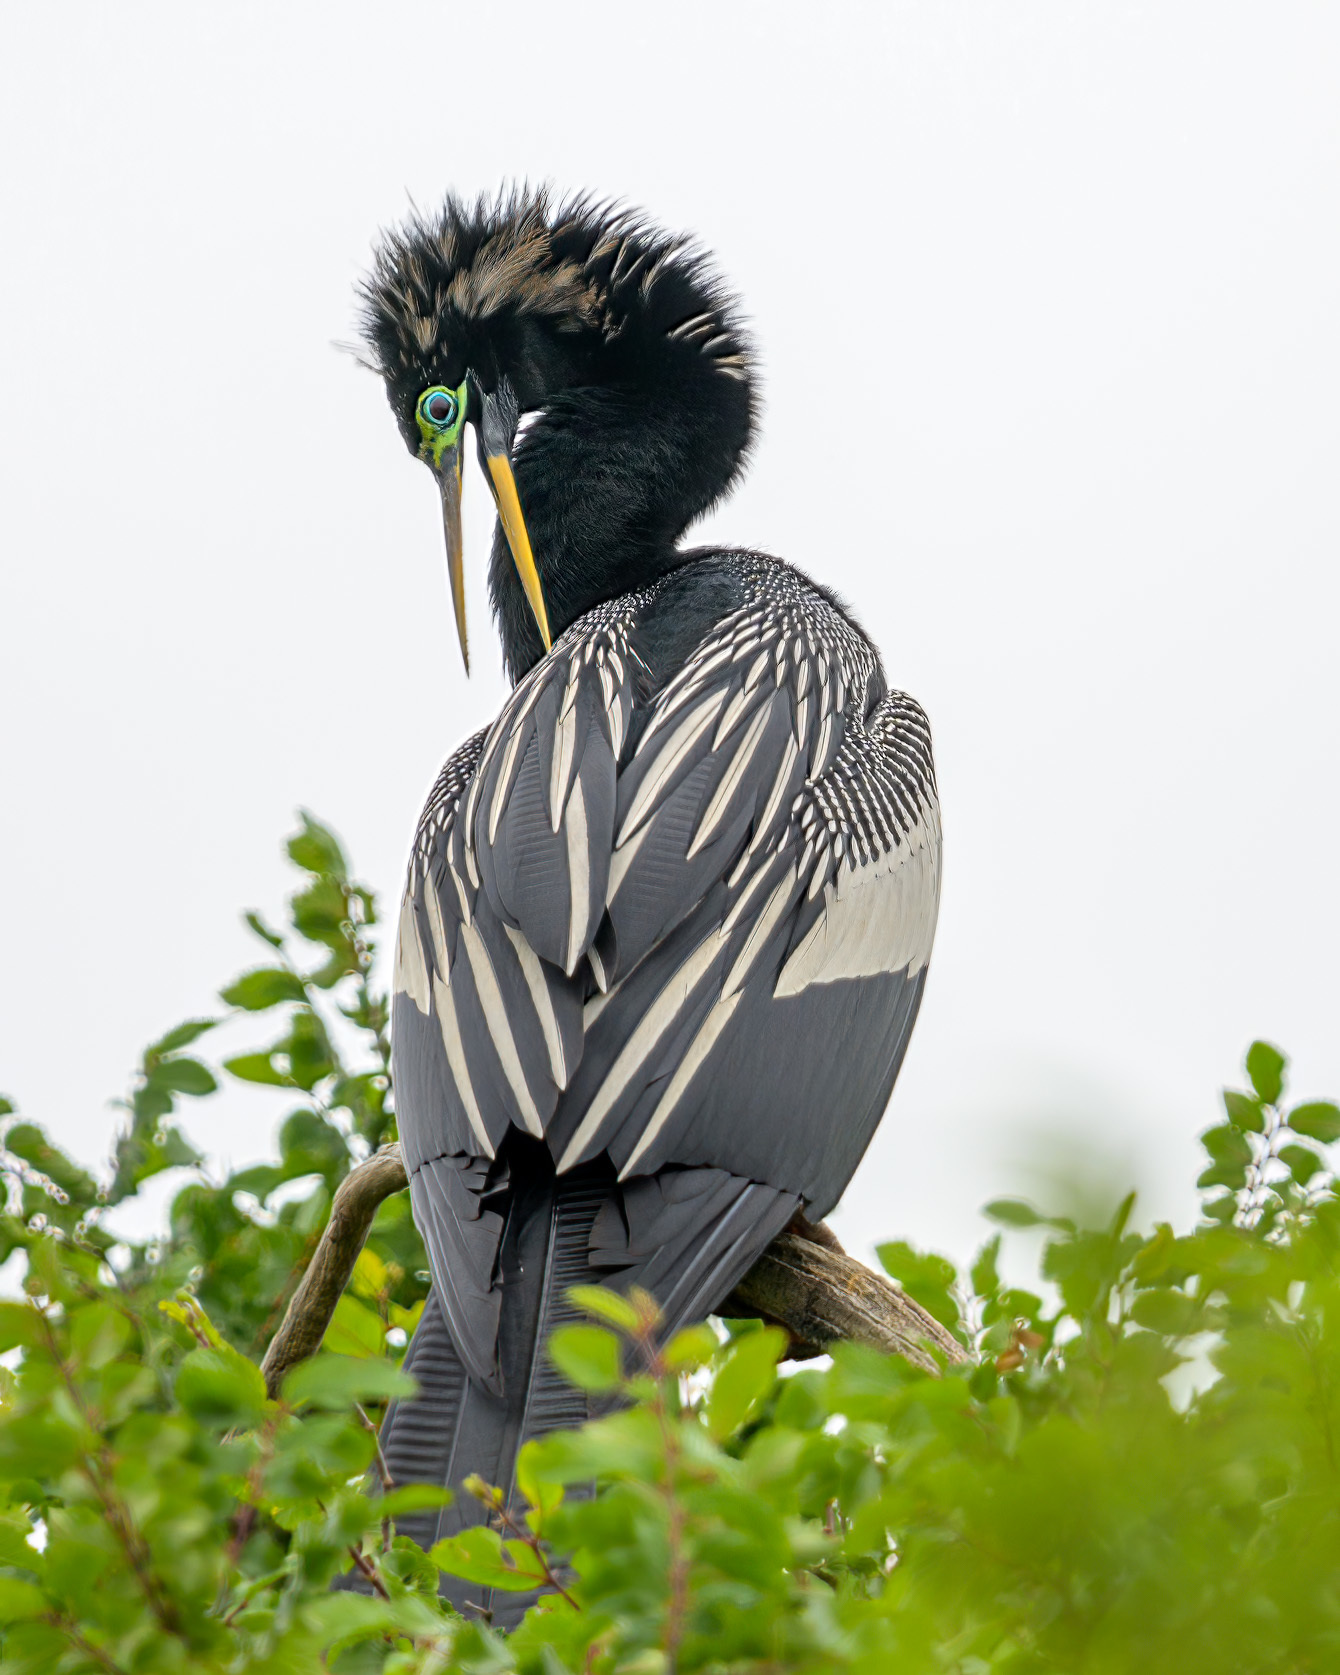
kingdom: Animalia
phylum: Chordata
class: Aves
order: Suliformes
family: Anhingidae
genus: Anhinga
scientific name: Anhinga anhinga
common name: Anhinga
